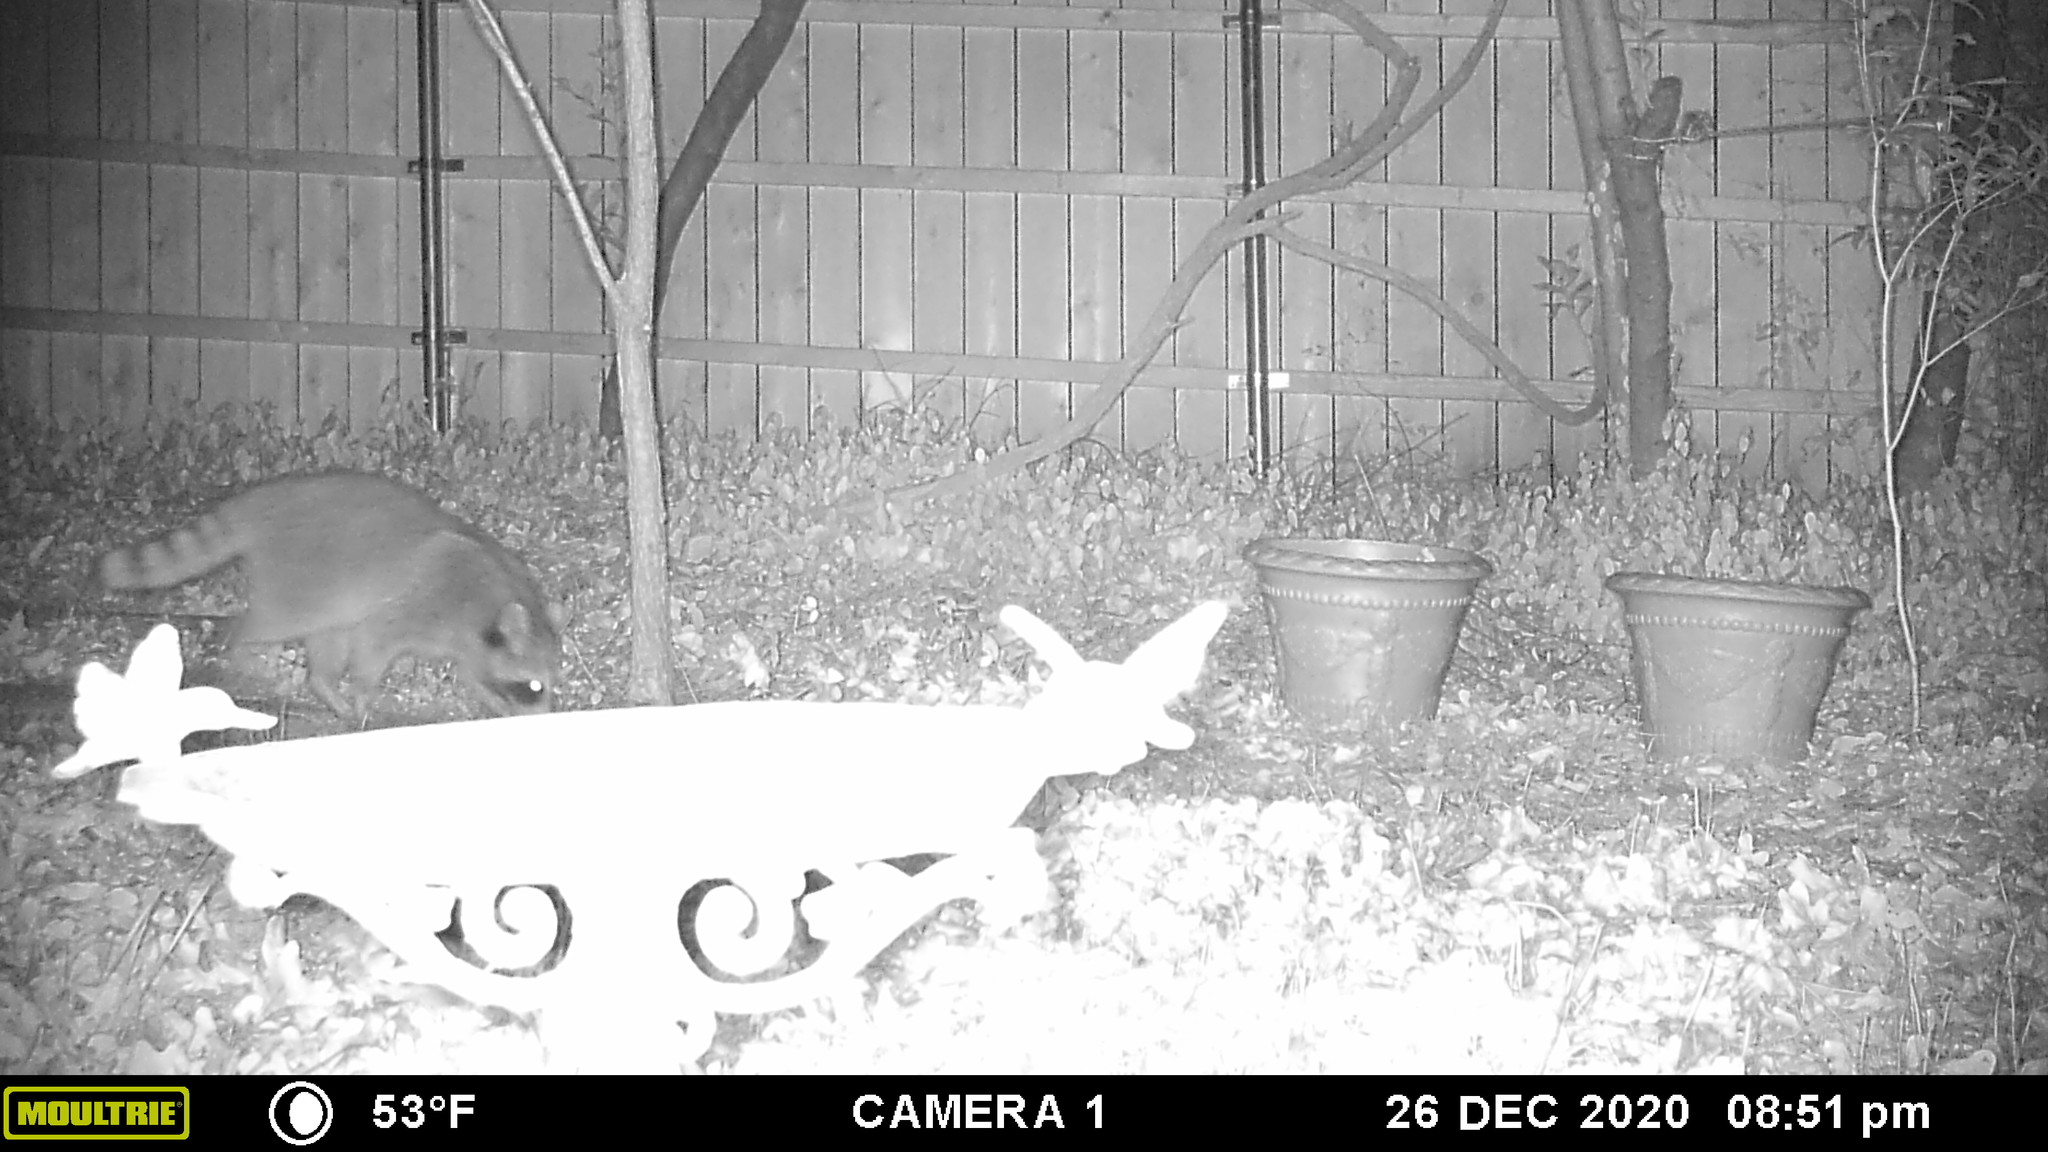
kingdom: Animalia
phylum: Chordata
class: Mammalia
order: Carnivora
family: Procyonidae
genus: Procyon
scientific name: Procyon lotor
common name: Raccoon
